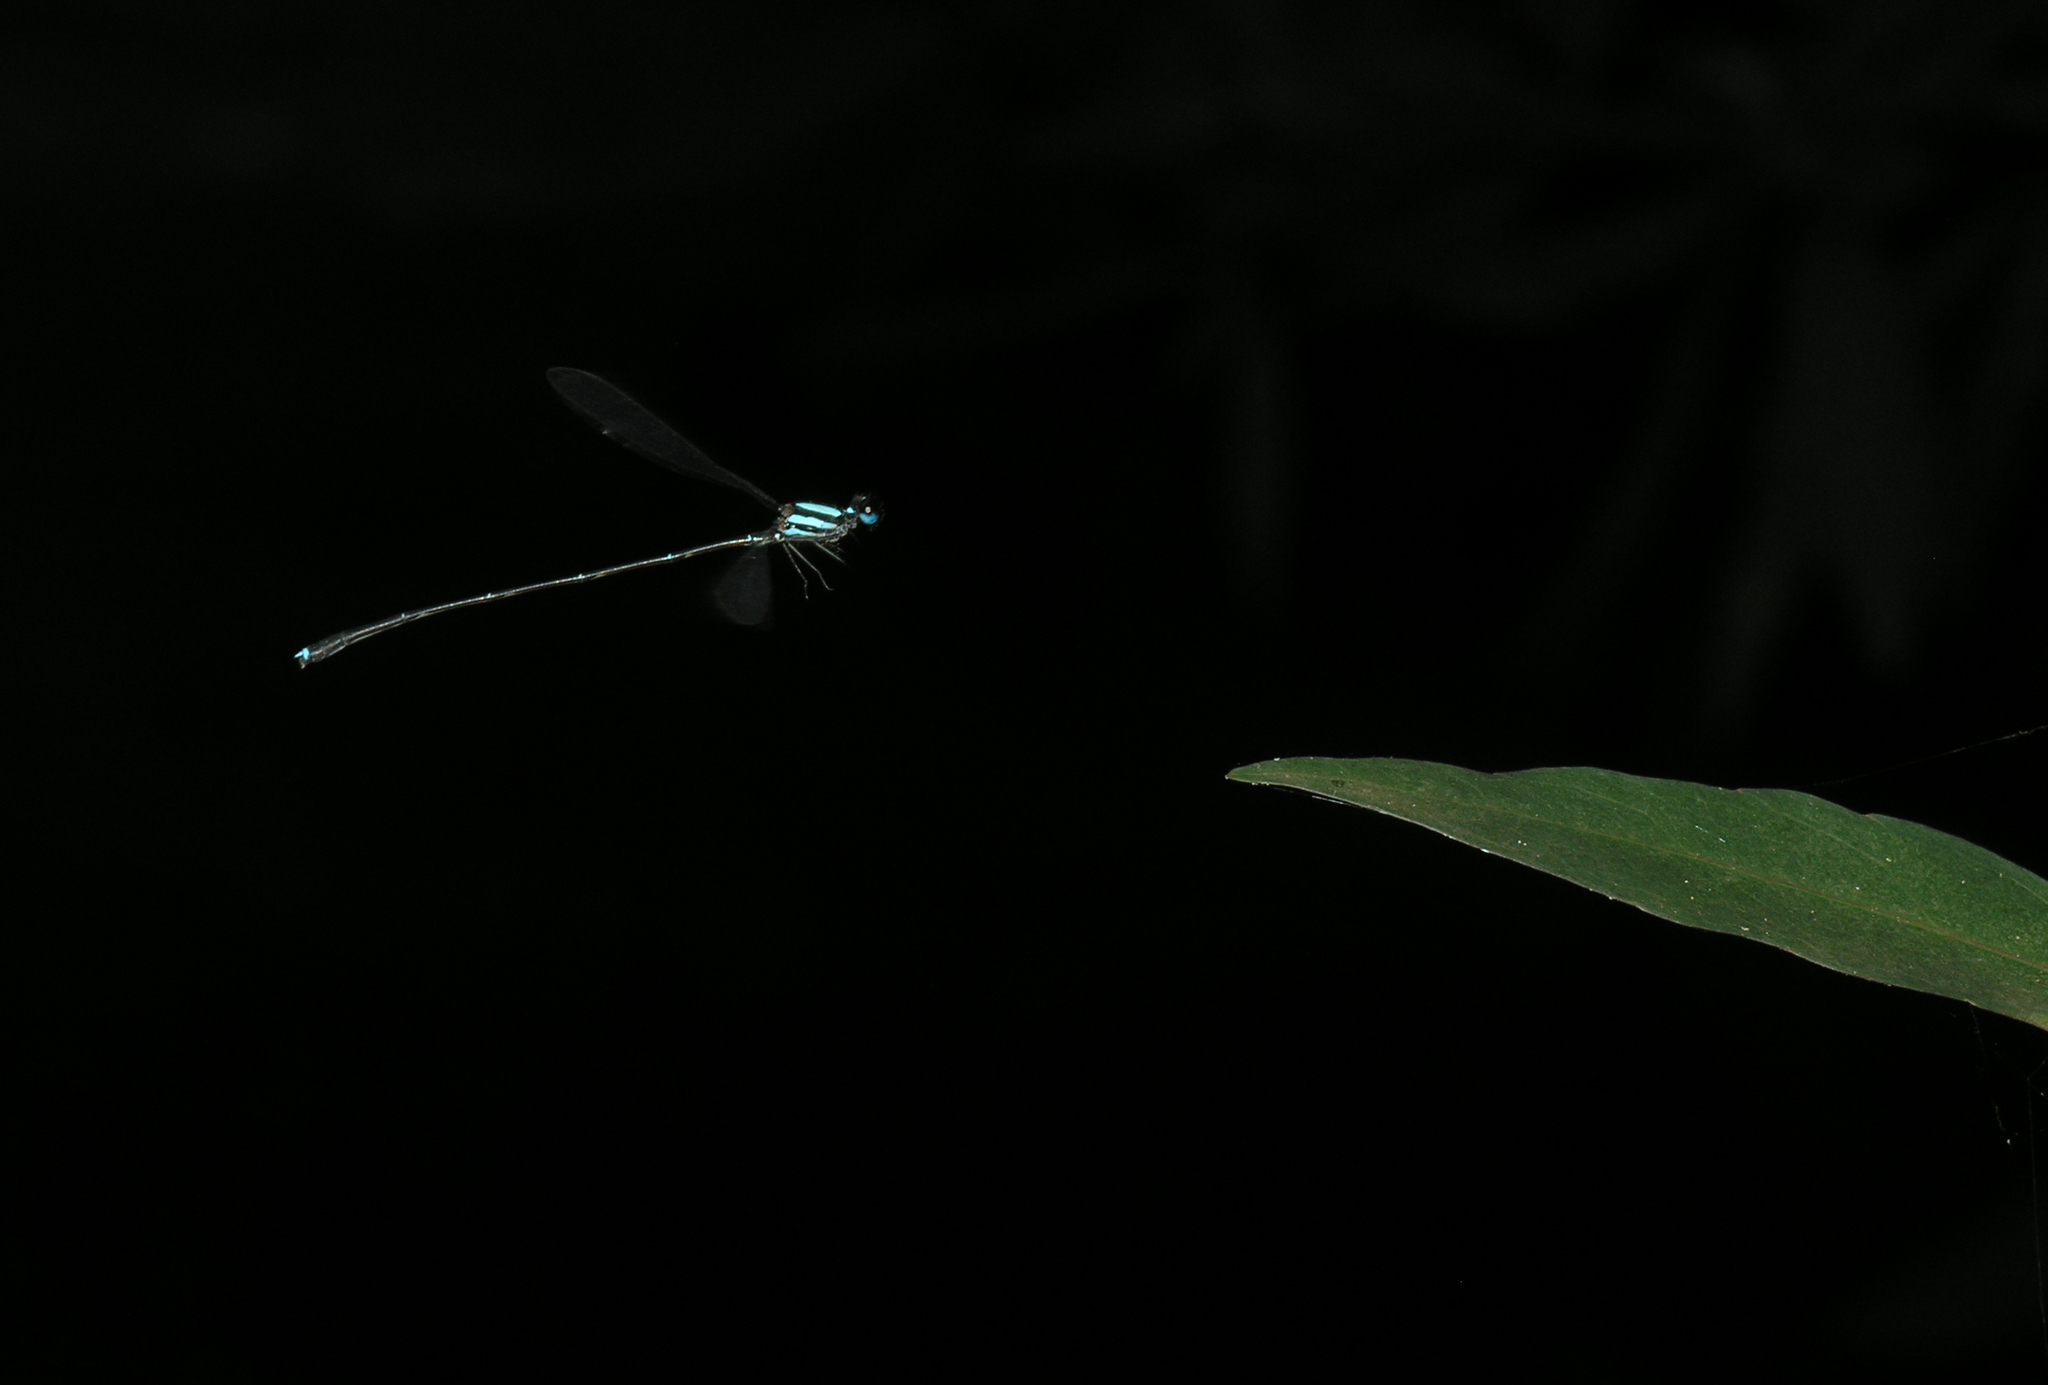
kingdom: Animalia
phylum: Arthropoda
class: Insecta
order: Odonata
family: Platycnemididae
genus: Prodasineura
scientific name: Prodasineura doisuthepensis
